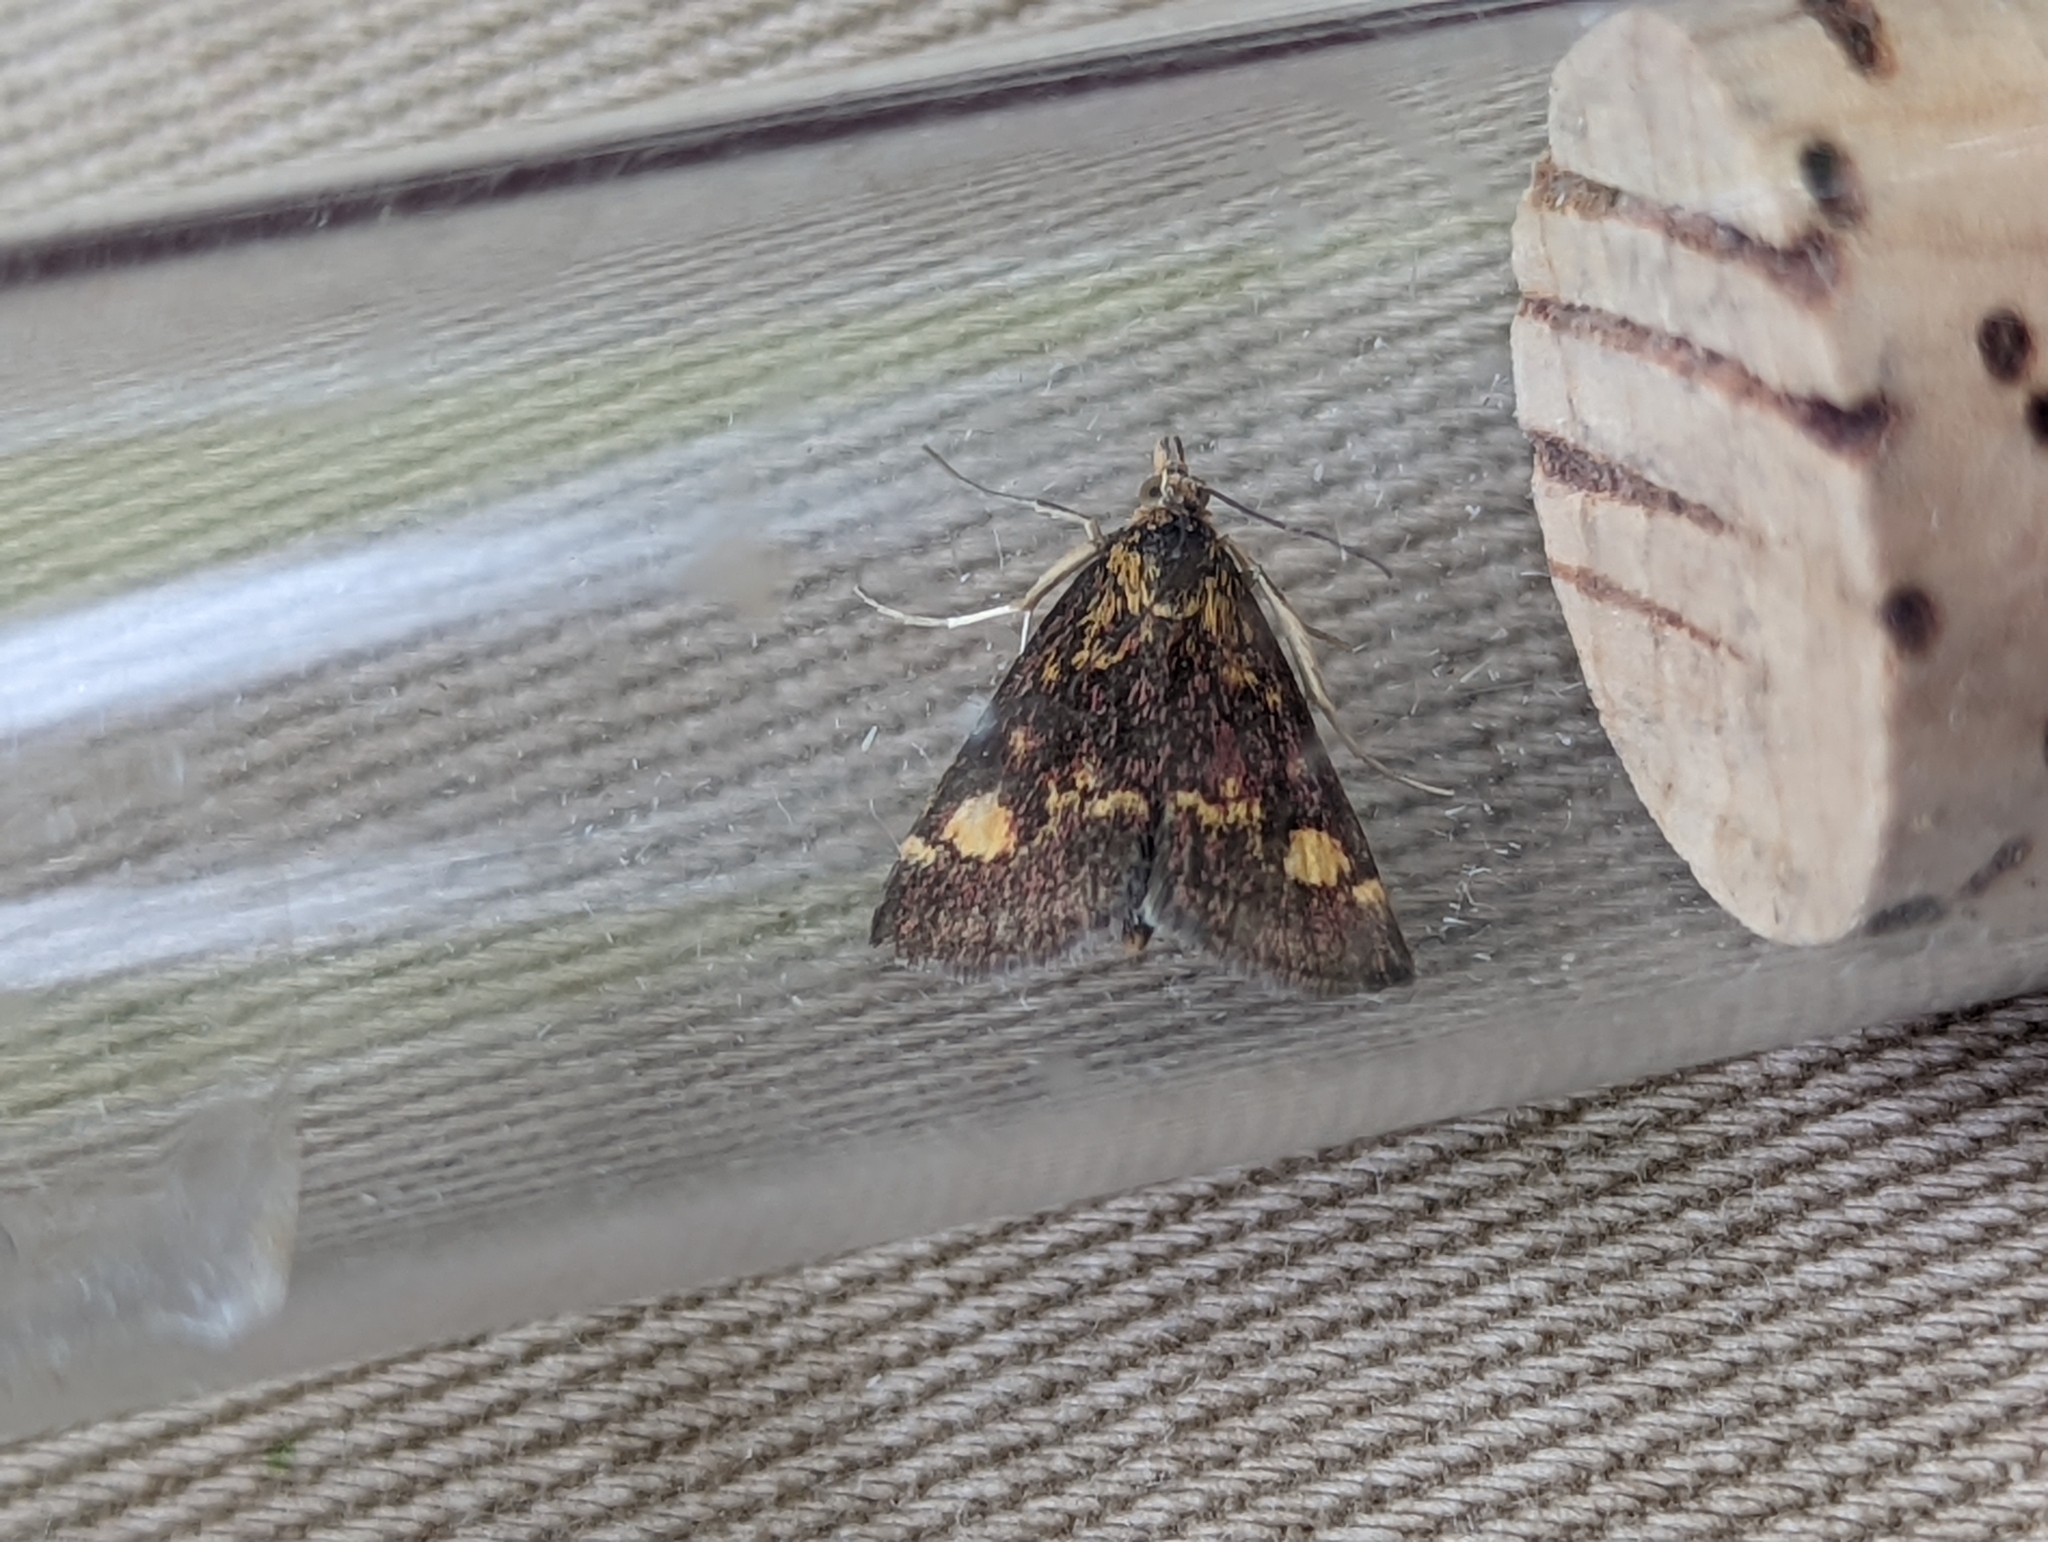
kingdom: Animalia
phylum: Arthropoda
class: Insecta
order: Lepidoptera
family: Crambidae
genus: Pyrausta
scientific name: Pyrausta aurata
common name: Small purple & gold
